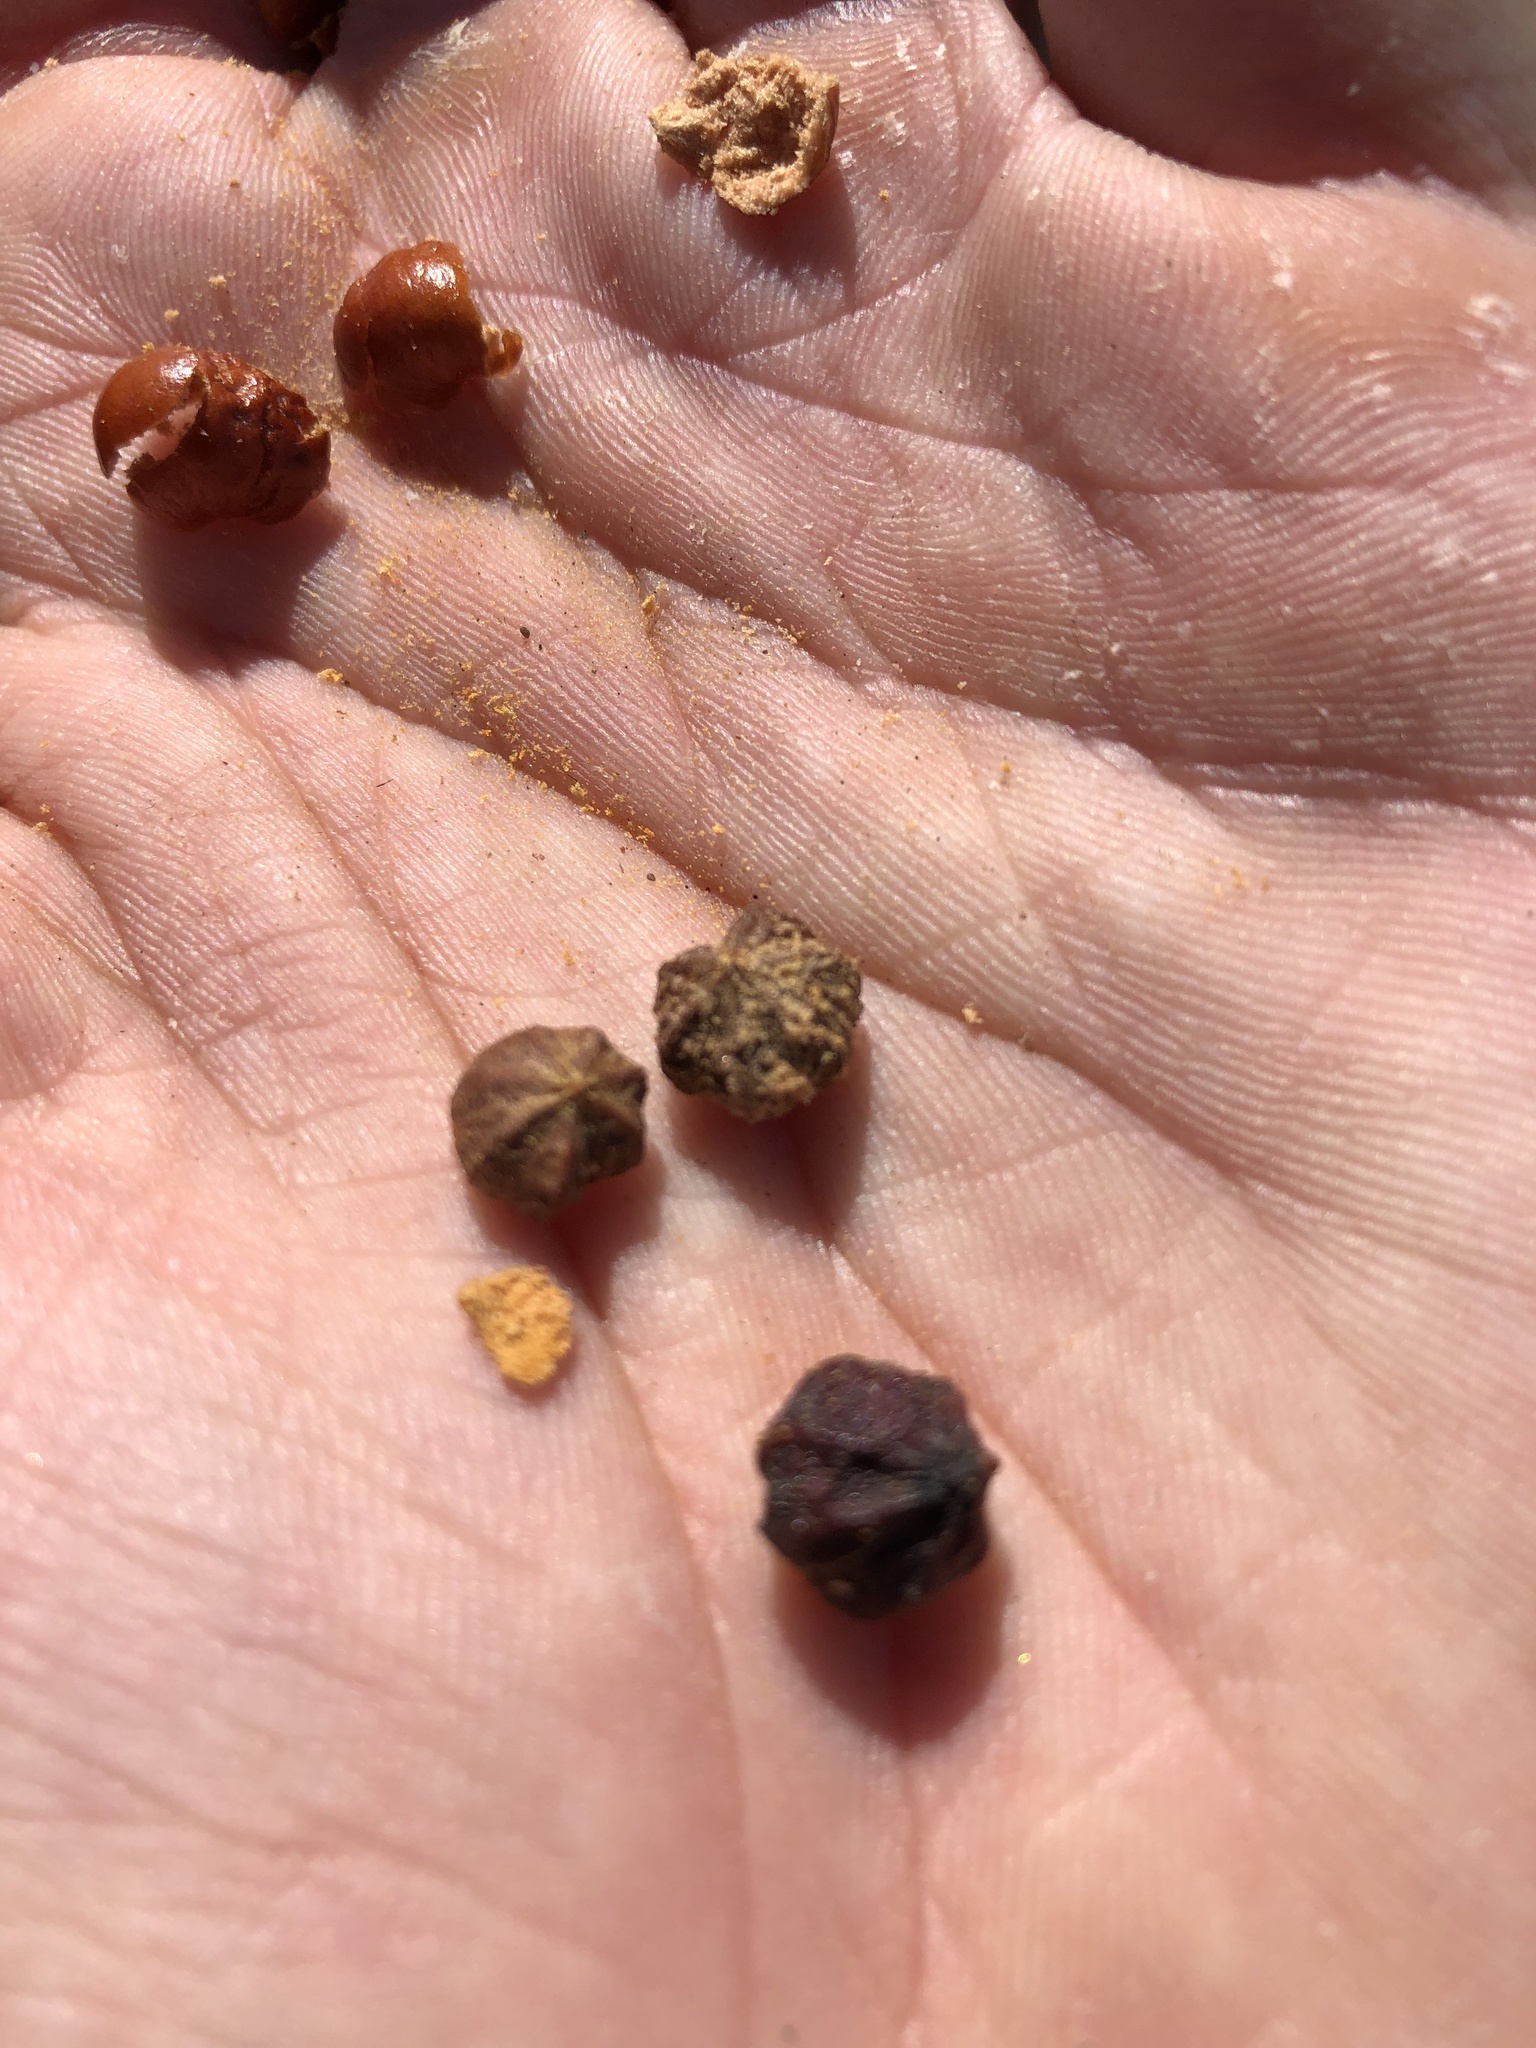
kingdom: Plantae
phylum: Tracheophyta
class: Magnoliopsida
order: Ericales
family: Ericaceae
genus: Arctostaphylos
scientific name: Arctostaphylos pechoensis
